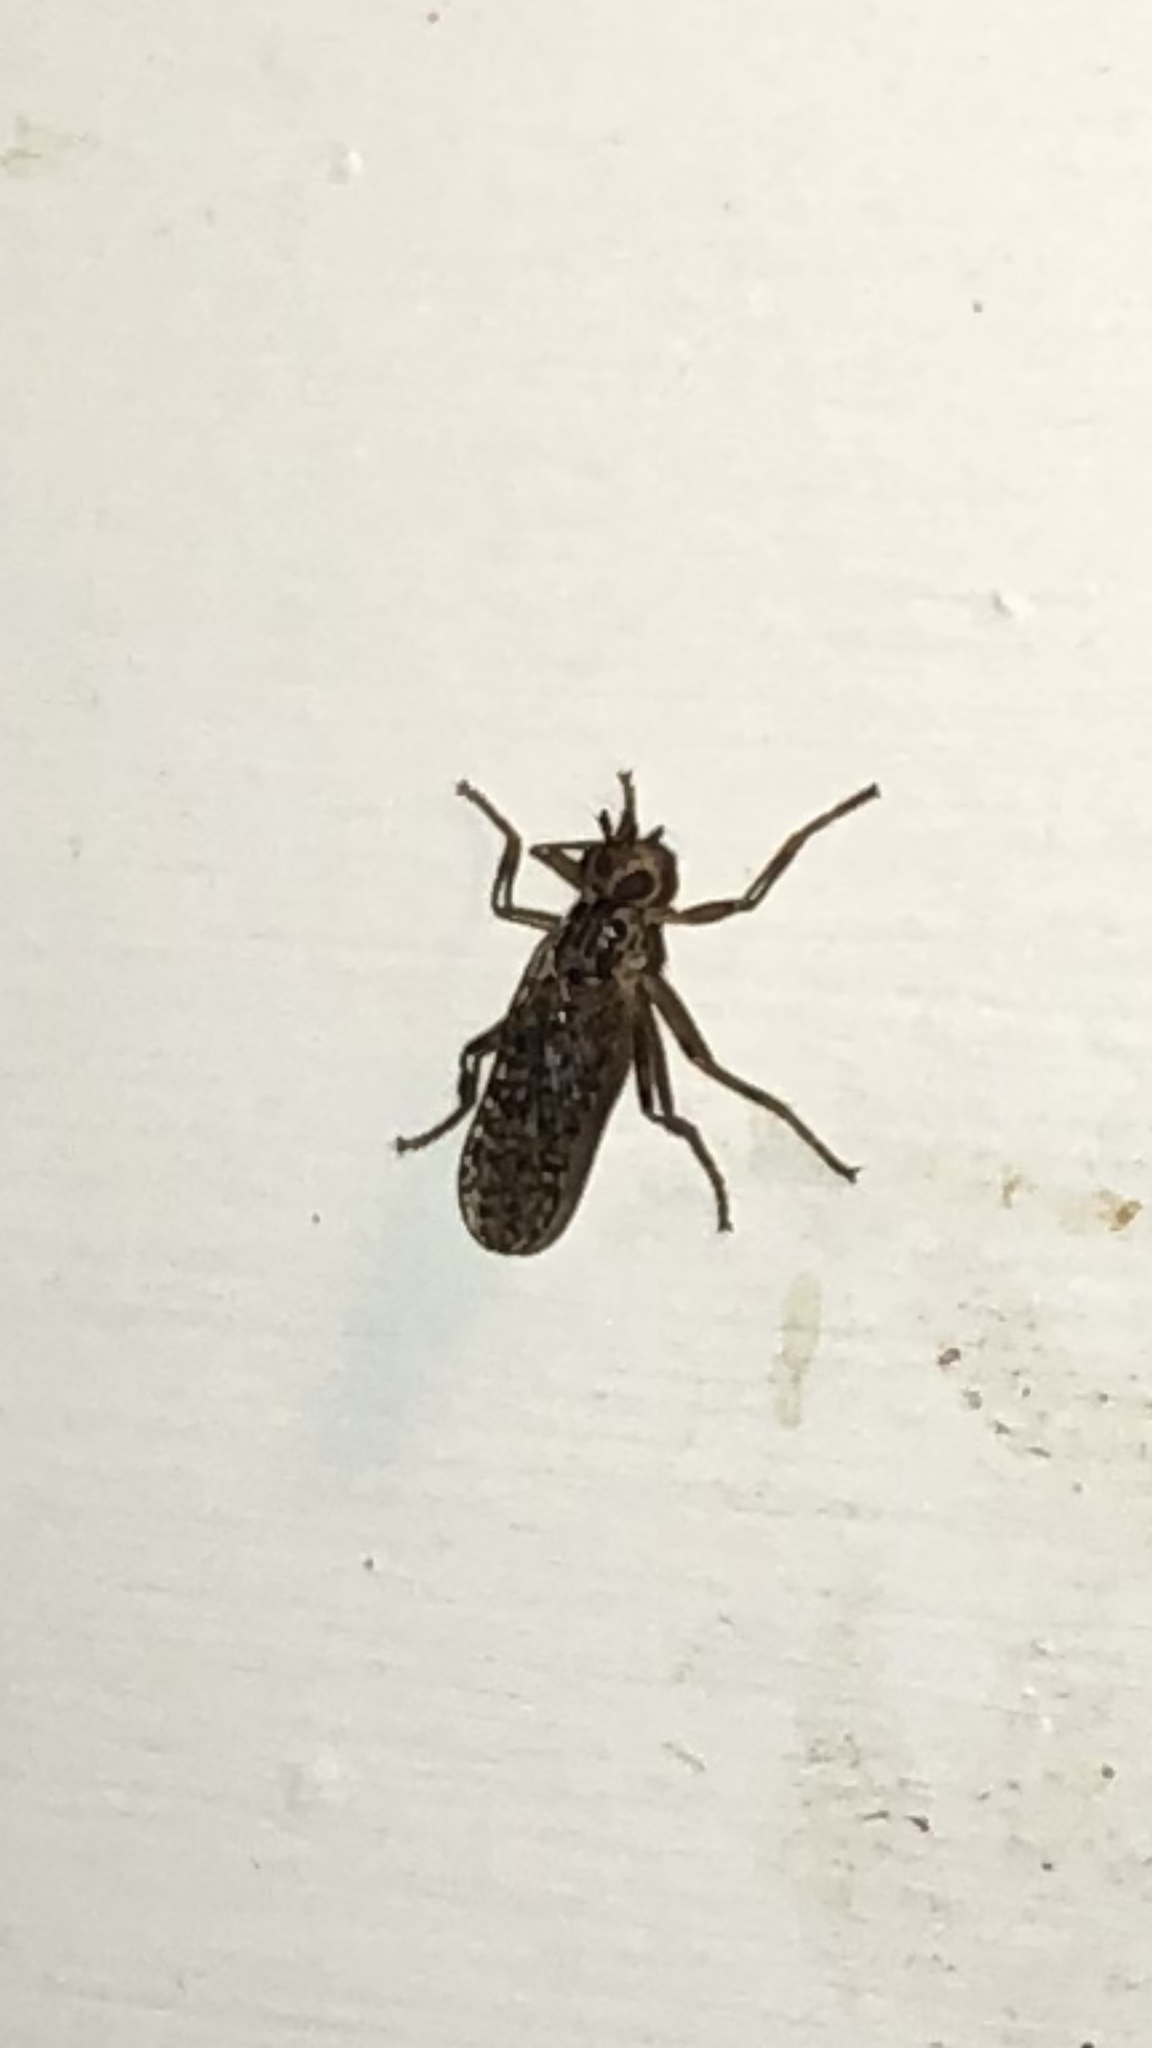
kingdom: Animalia
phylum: Arthropoda
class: Insecta
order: Diptera
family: Pyrgotidae
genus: Boreothrinax
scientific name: Boreothrinax
